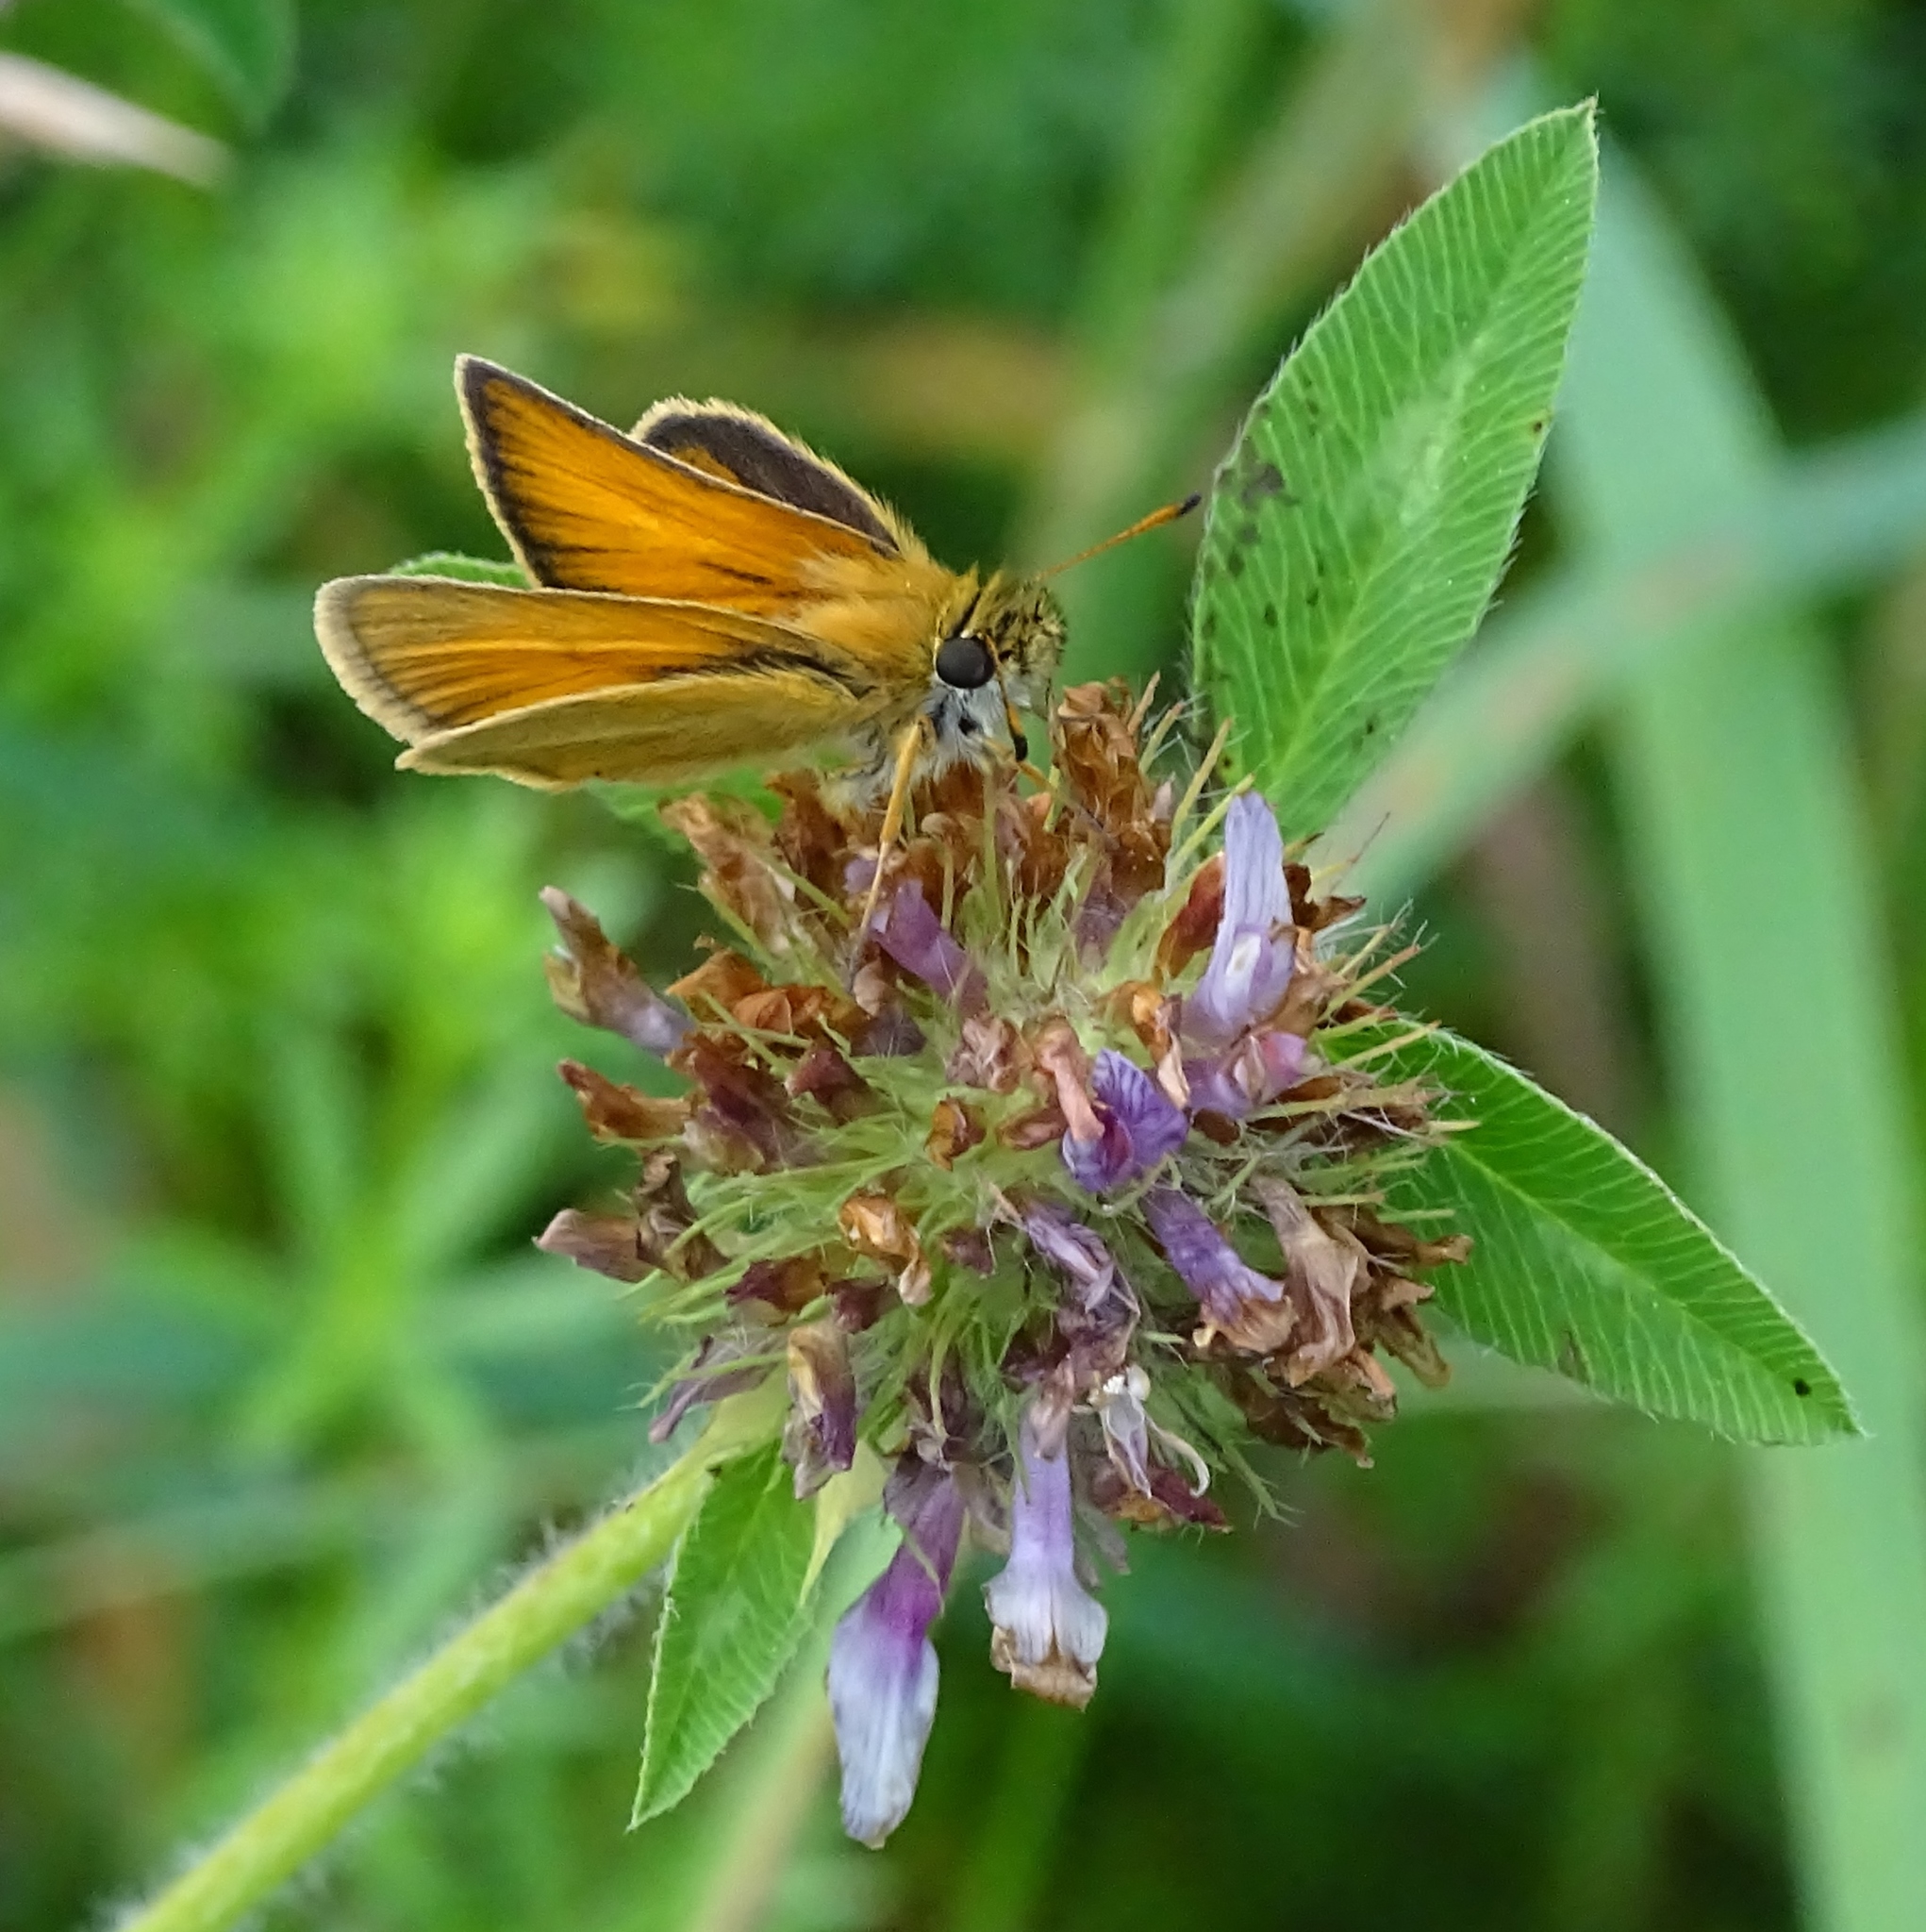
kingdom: Animalia
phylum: Arthropoda
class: Insecta
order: Lepidoptera
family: Hesperiidae
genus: Thymelicus
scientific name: Thymelicus lineola
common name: Essex skipper
